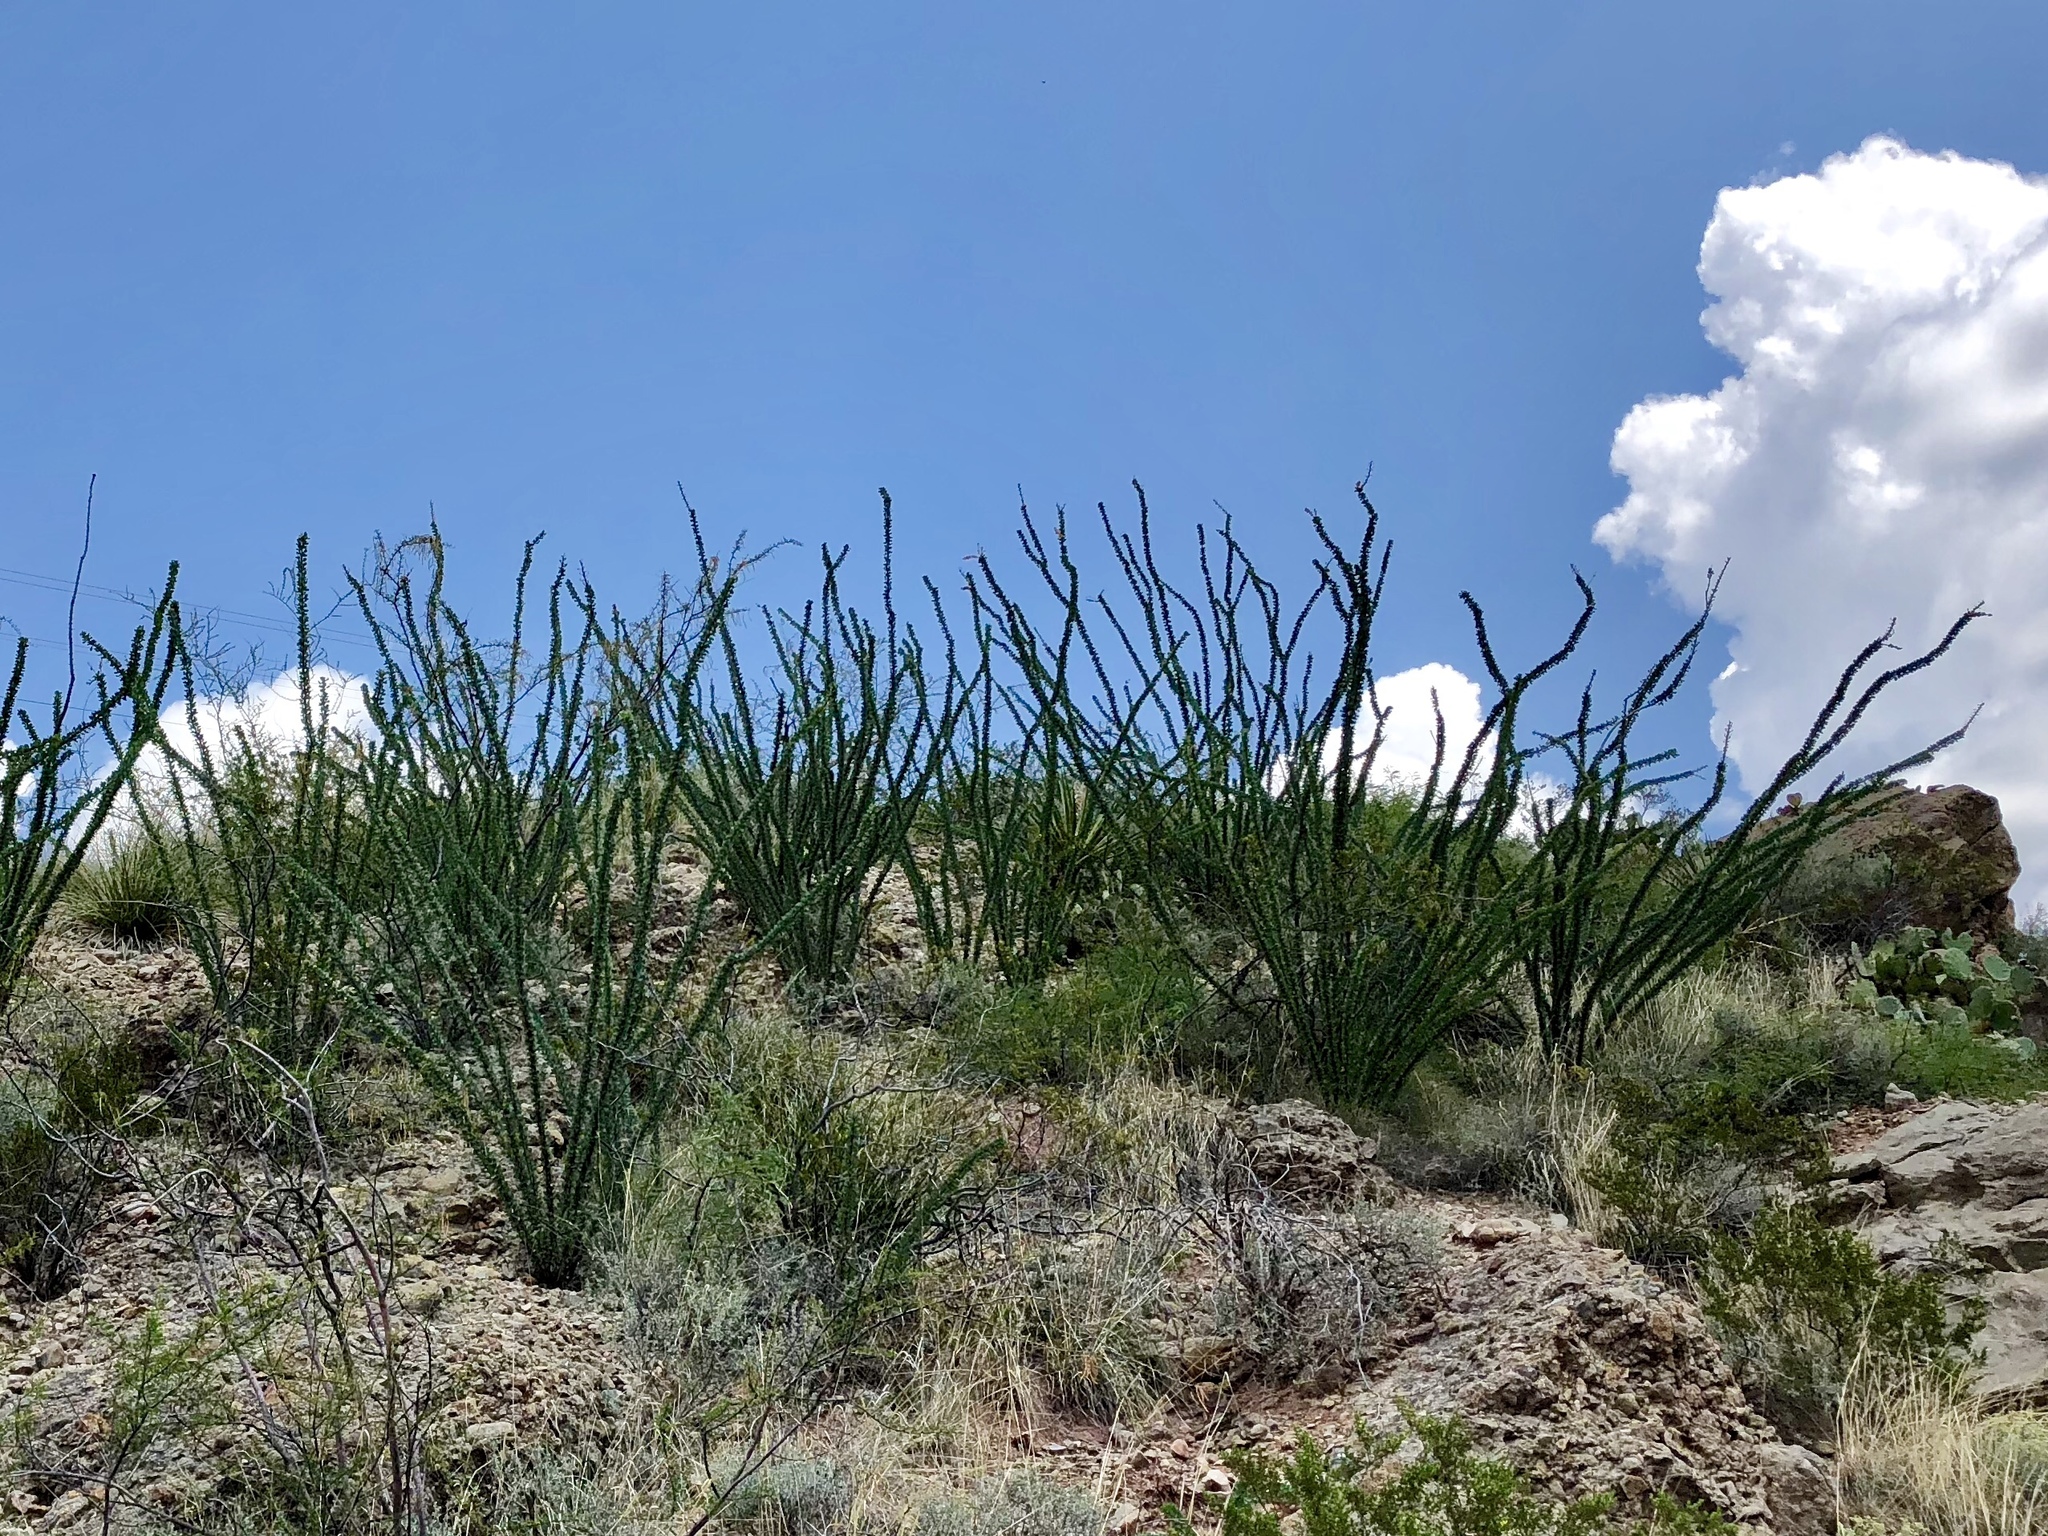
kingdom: Plantae
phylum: Tracheophyta
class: Magnoliopsida
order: Ericales
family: Fouquieriaceae
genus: Fouquieria
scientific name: Fouquieria splendens
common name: Vine-cactus
